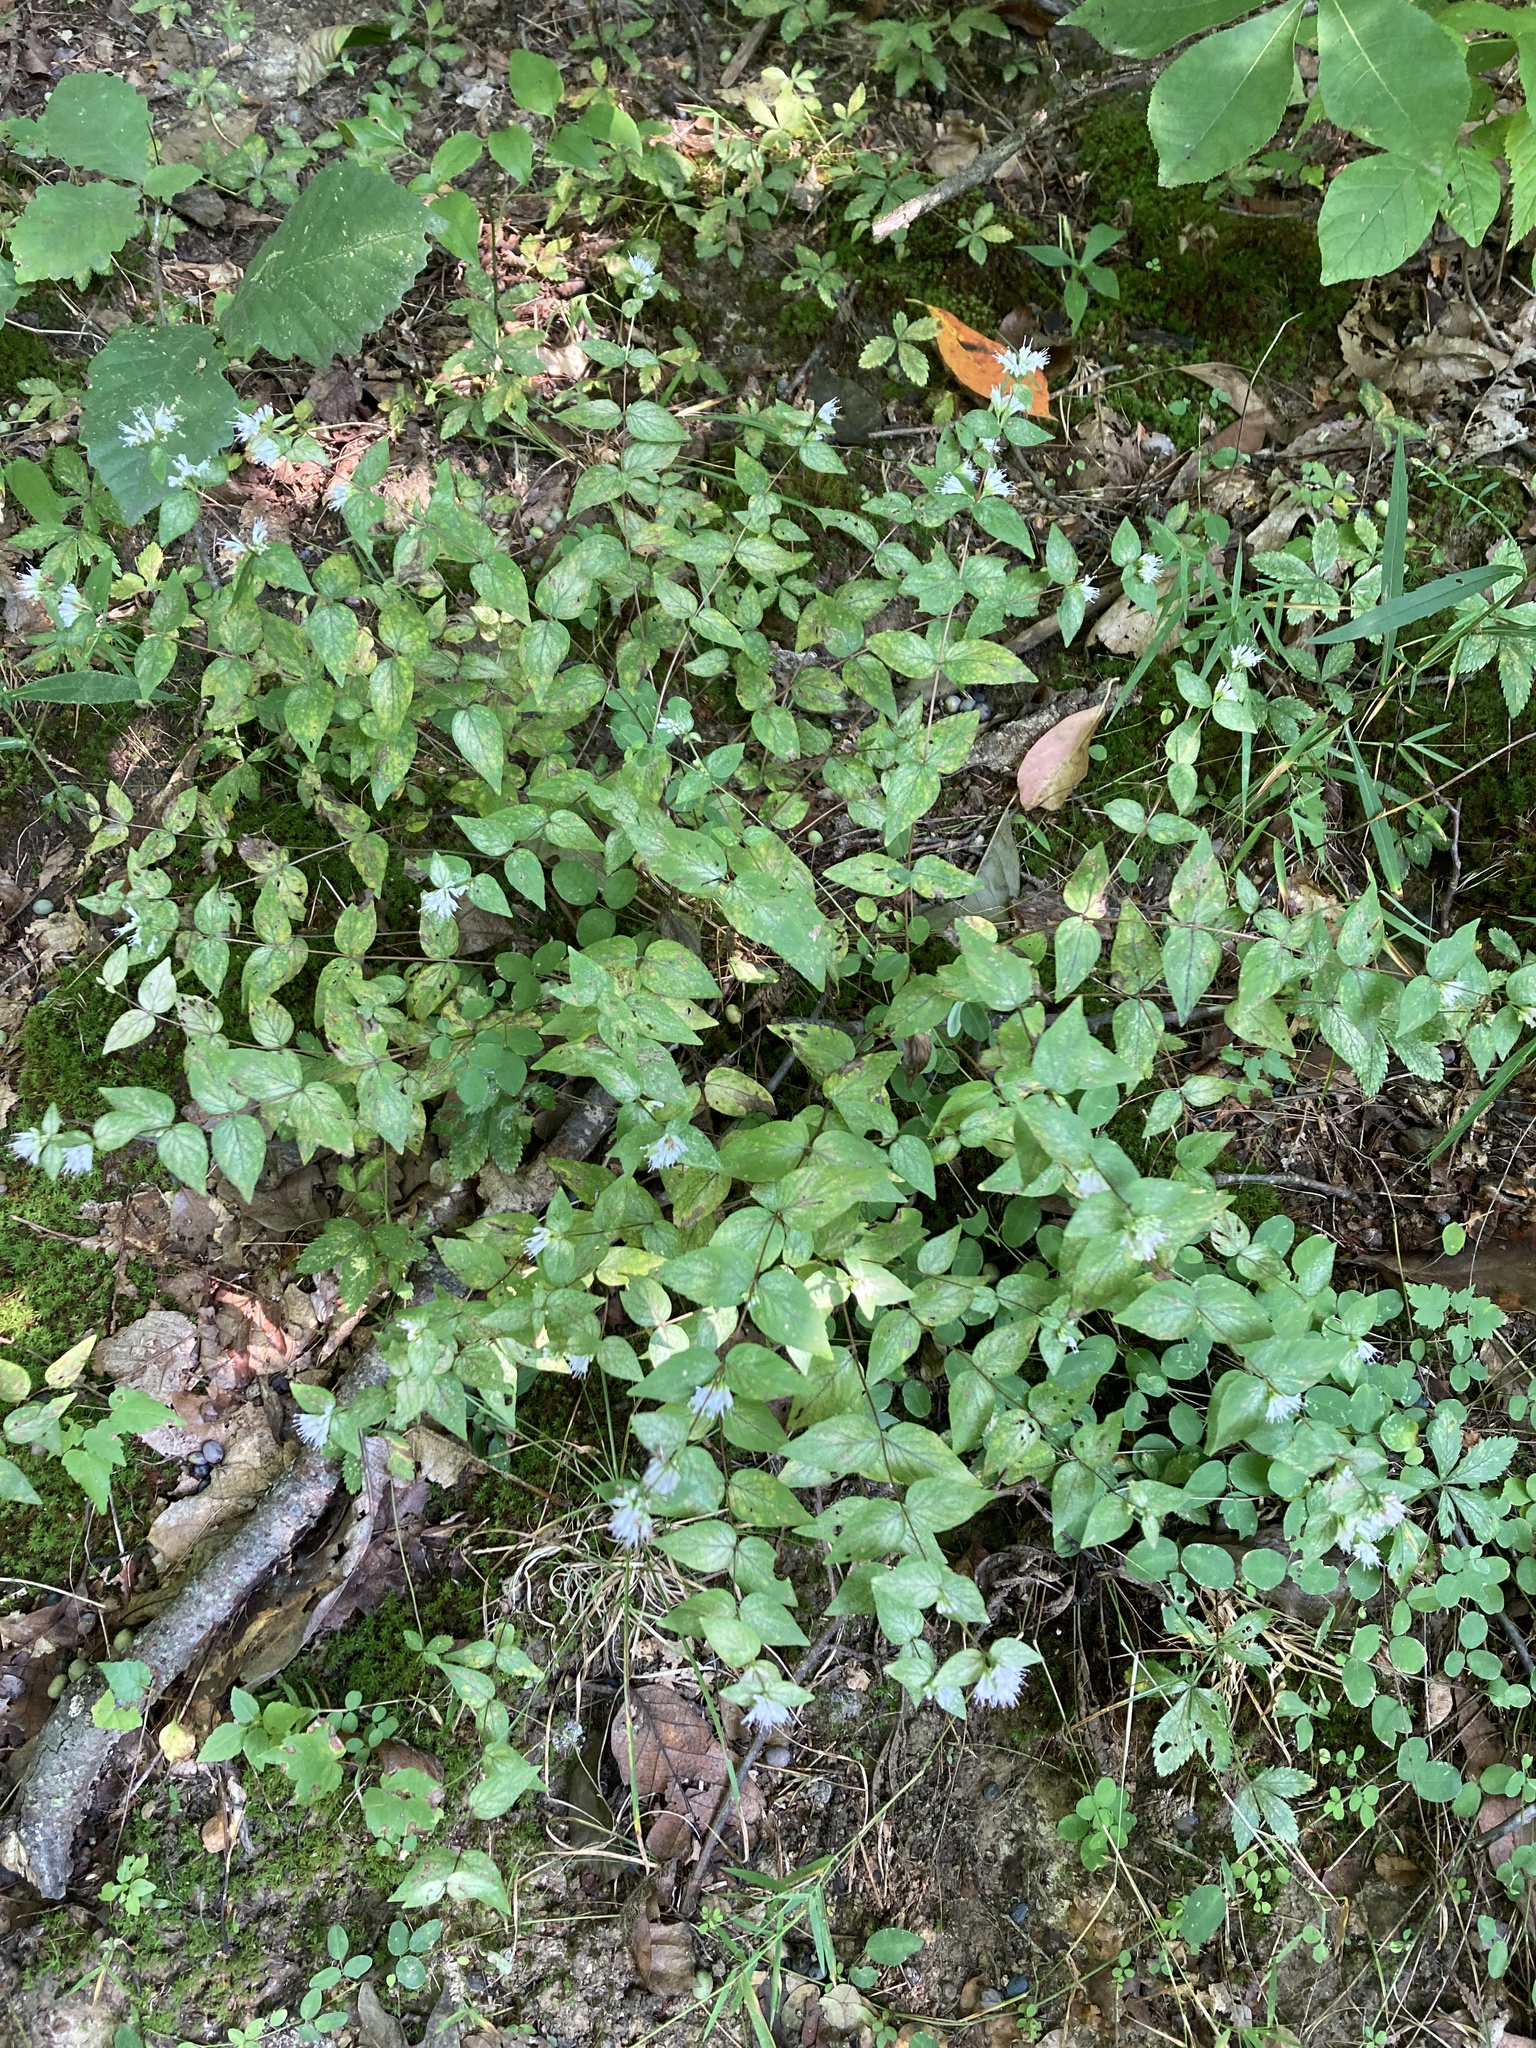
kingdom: Plantae
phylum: Tracheophyta
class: Magnoliopsida
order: Lamiales
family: Lamiaceae
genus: Cunila
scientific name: Cunila origanoides
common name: American dittany
